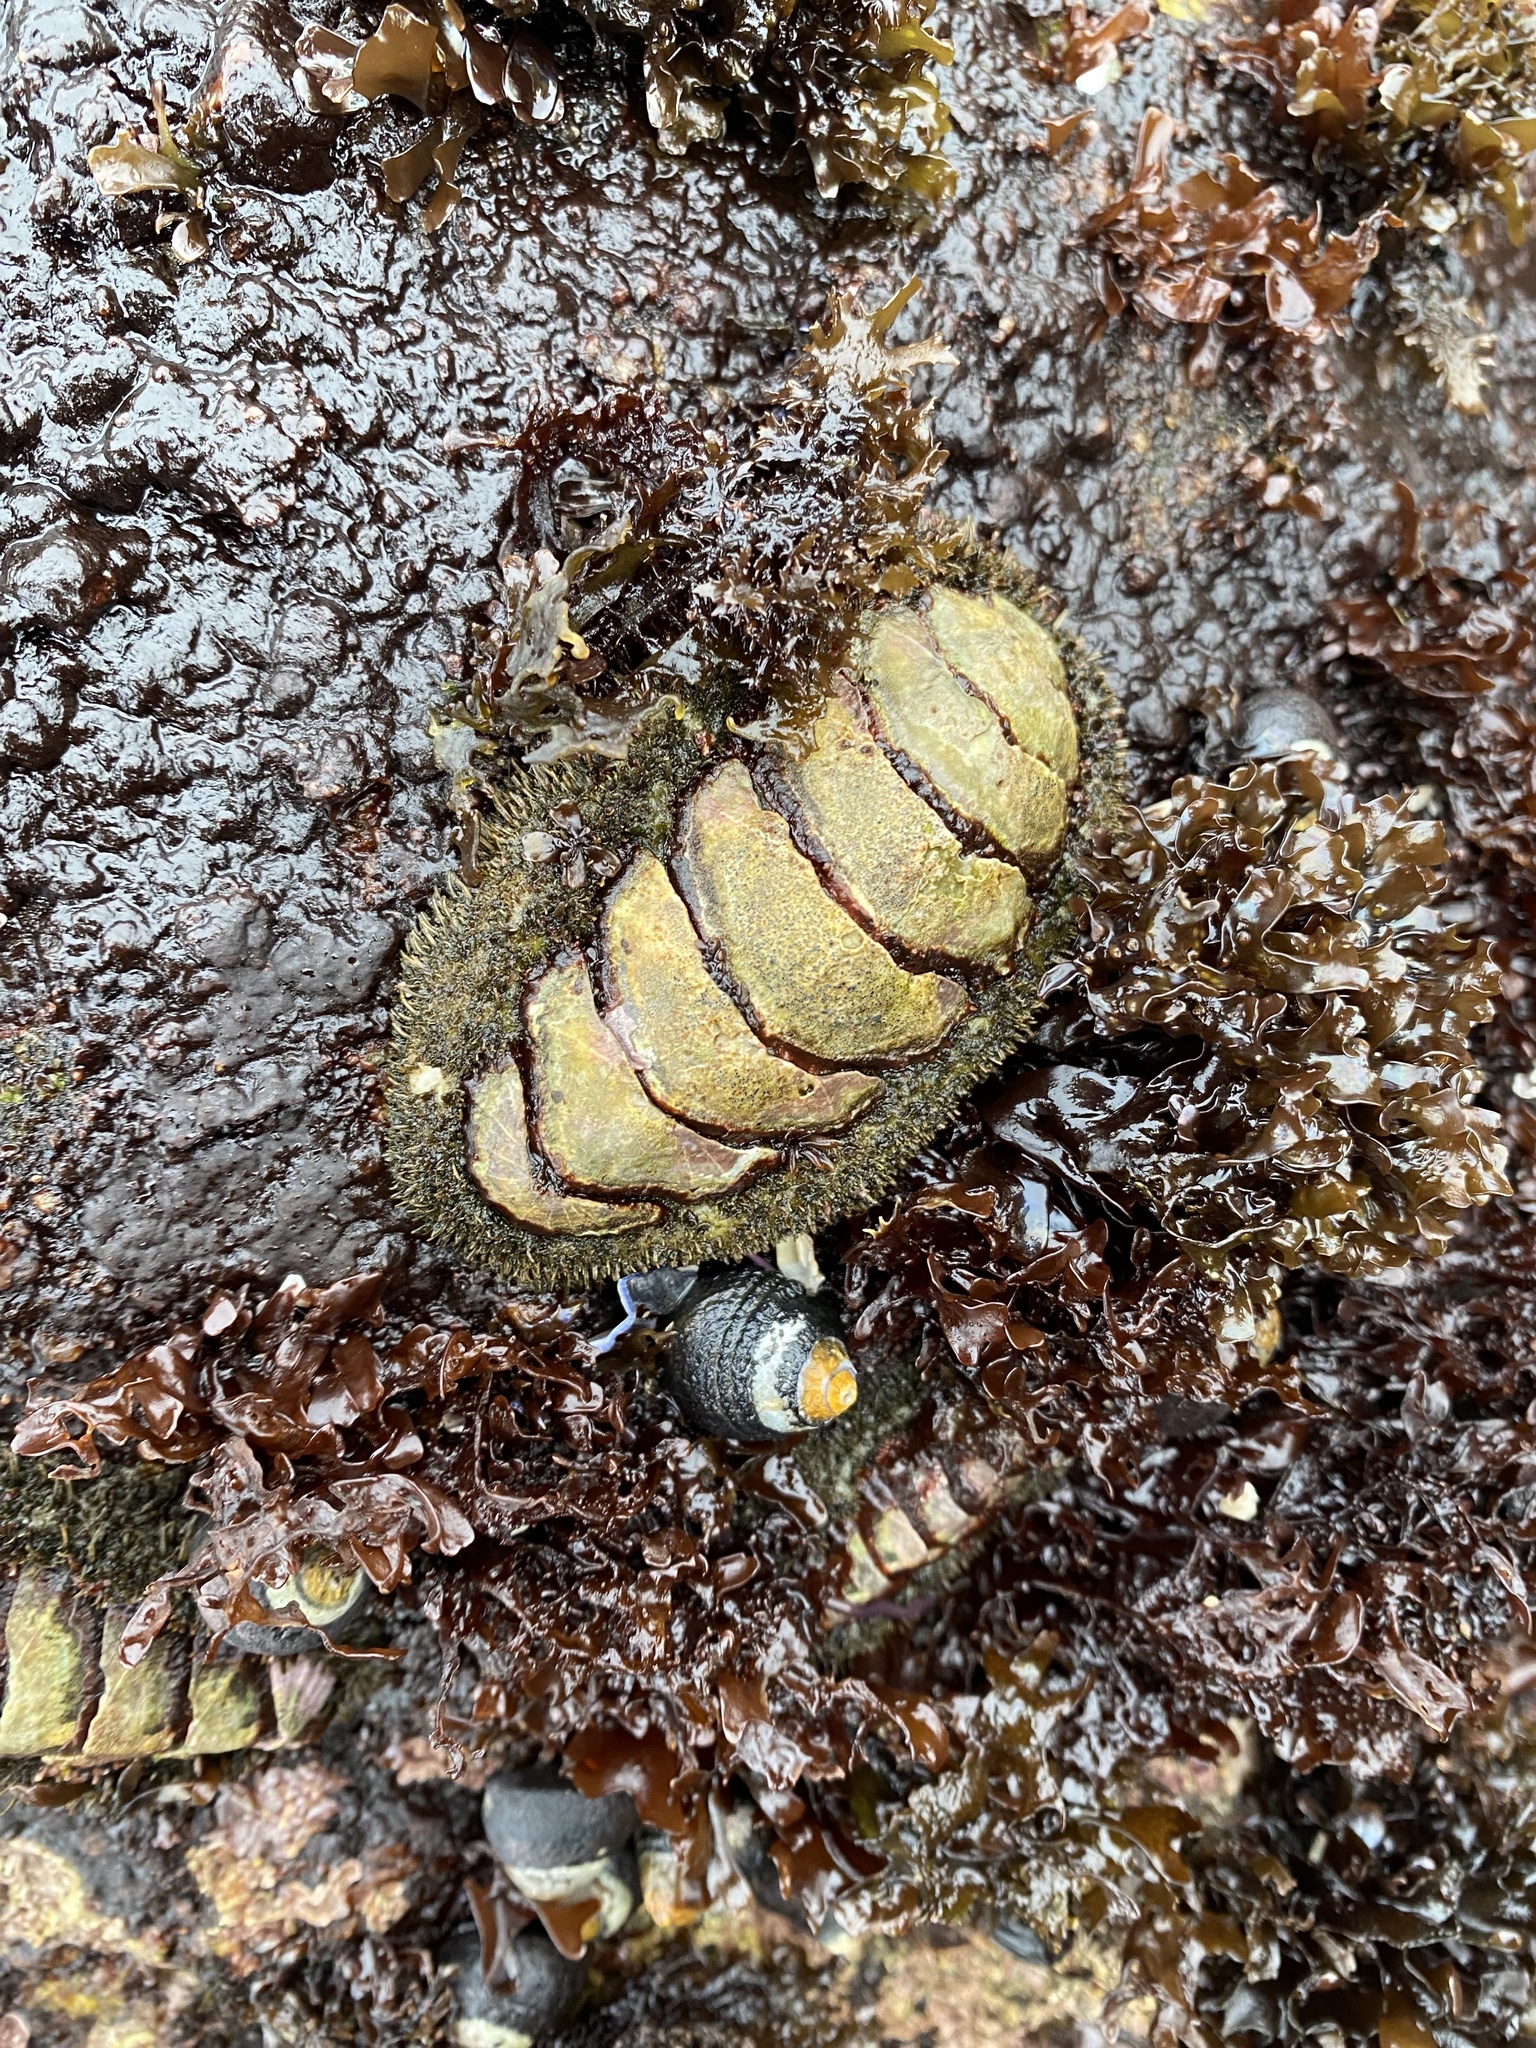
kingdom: Animalia
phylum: Mollusca
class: Polyplacophora
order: Chitonida
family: Mopaliidae
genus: Mopalia
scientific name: Mopalia muscosa
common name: Mossy chiton
